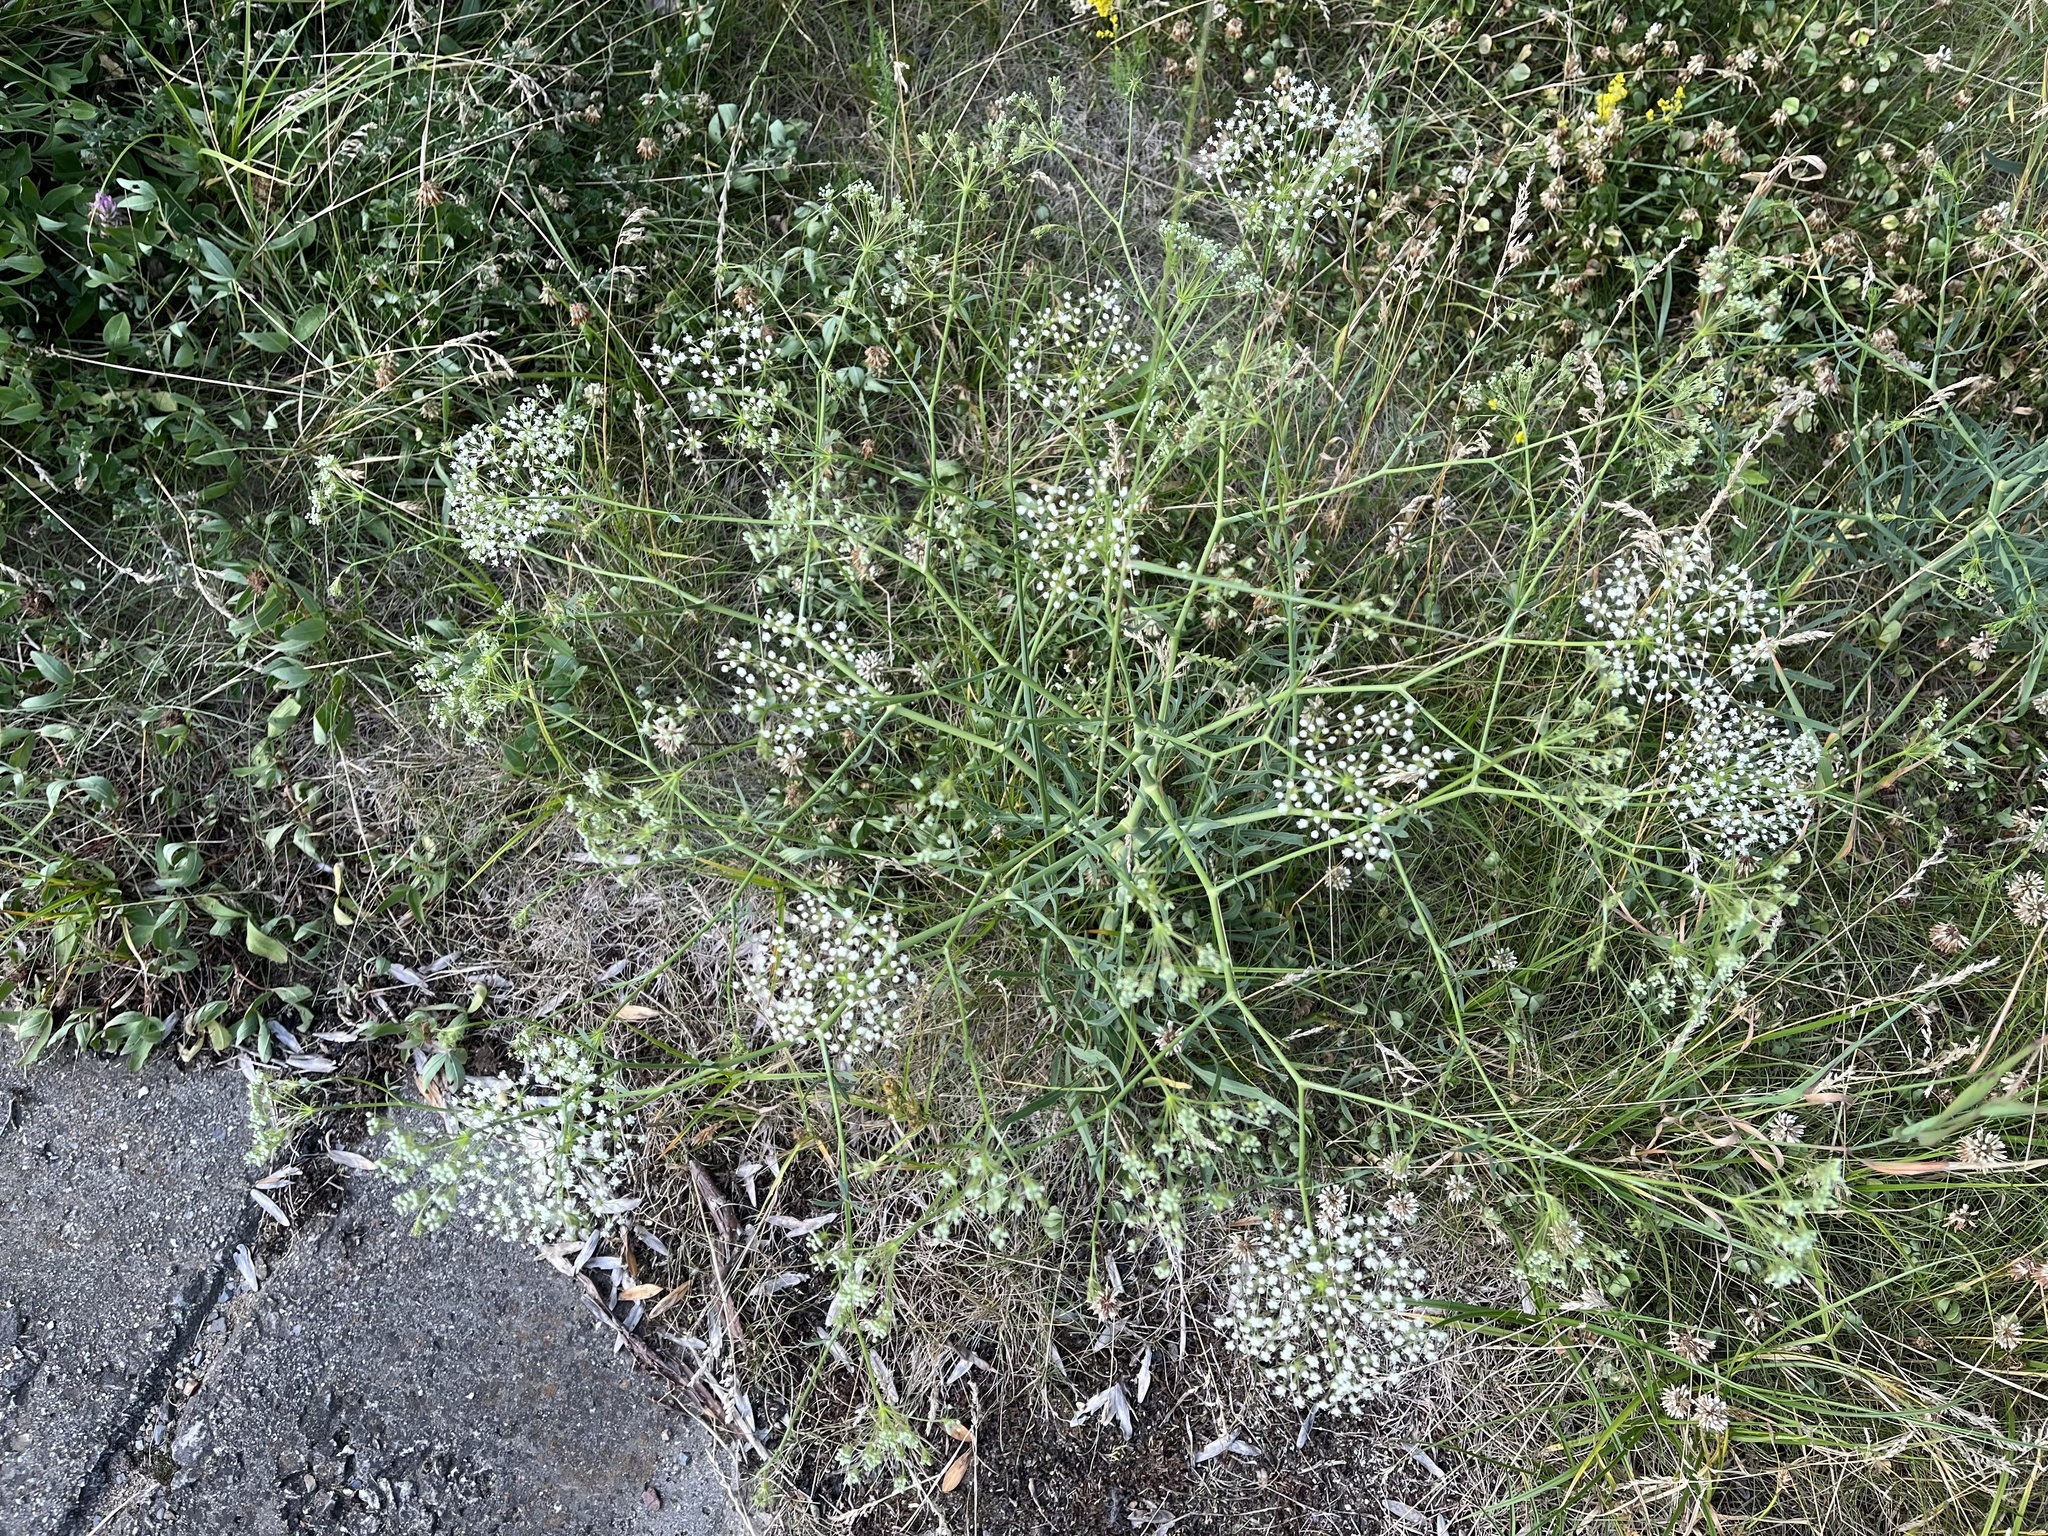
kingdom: Plantae
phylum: Tracheophyta
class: Magnoliopsida
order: Apiales
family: Apiaceae
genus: Falcaria
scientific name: Falcaria vulgaris
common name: Longleaf
